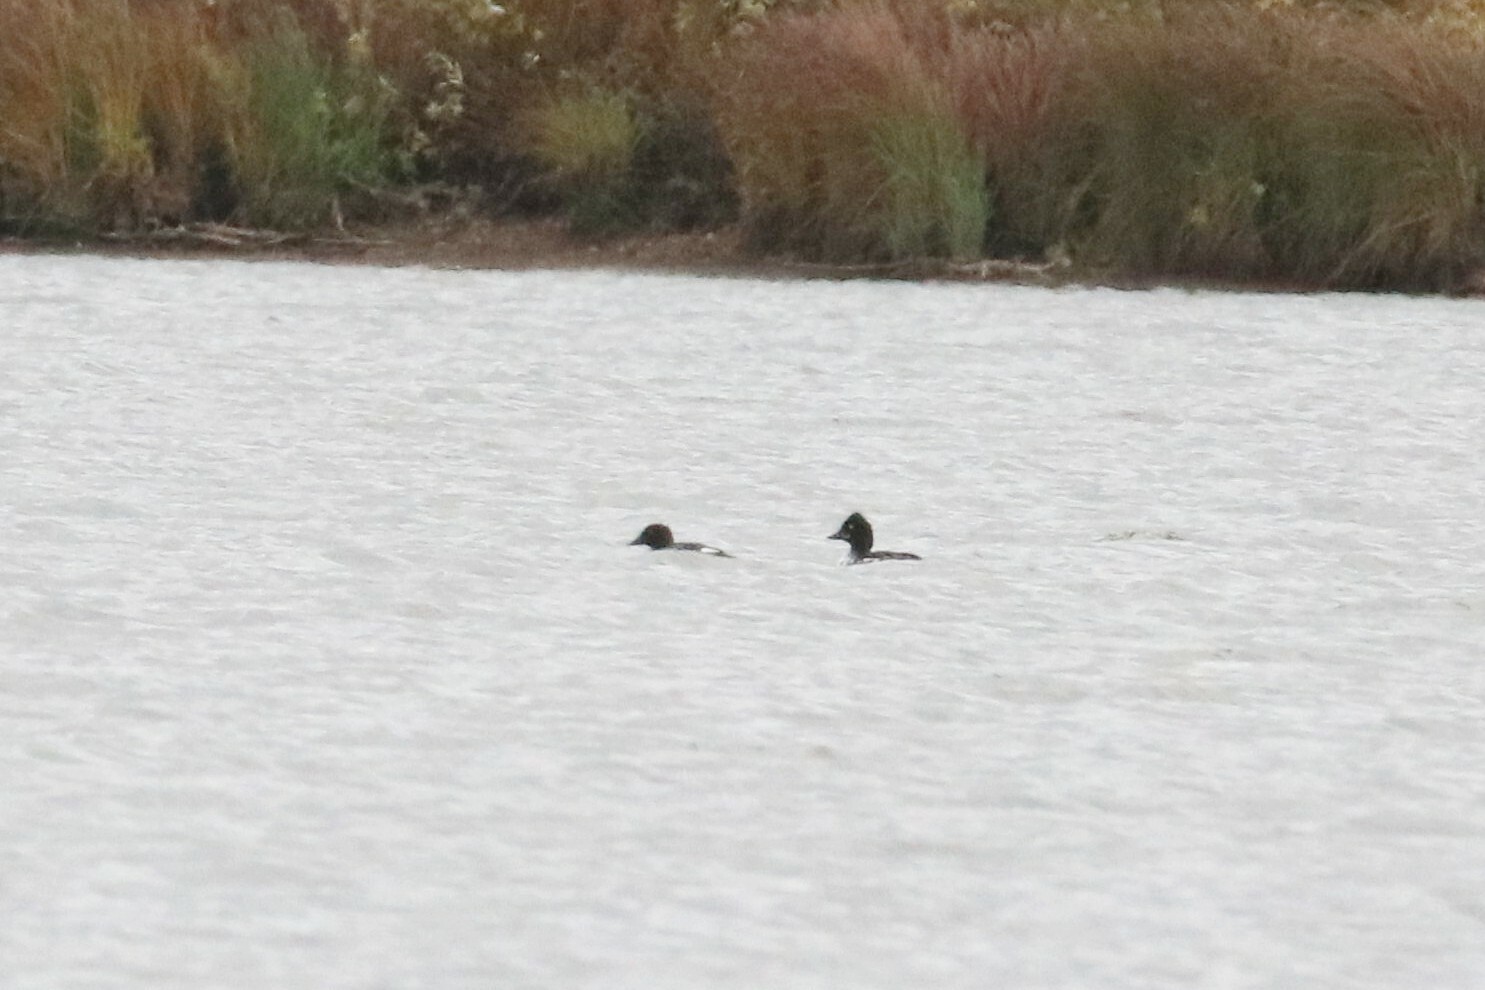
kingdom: Animalia
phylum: Chordata
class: Aves
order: Anseriformes
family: Anatidae
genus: Bucephala
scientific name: Bucephala clangula
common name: Common goldeneye
